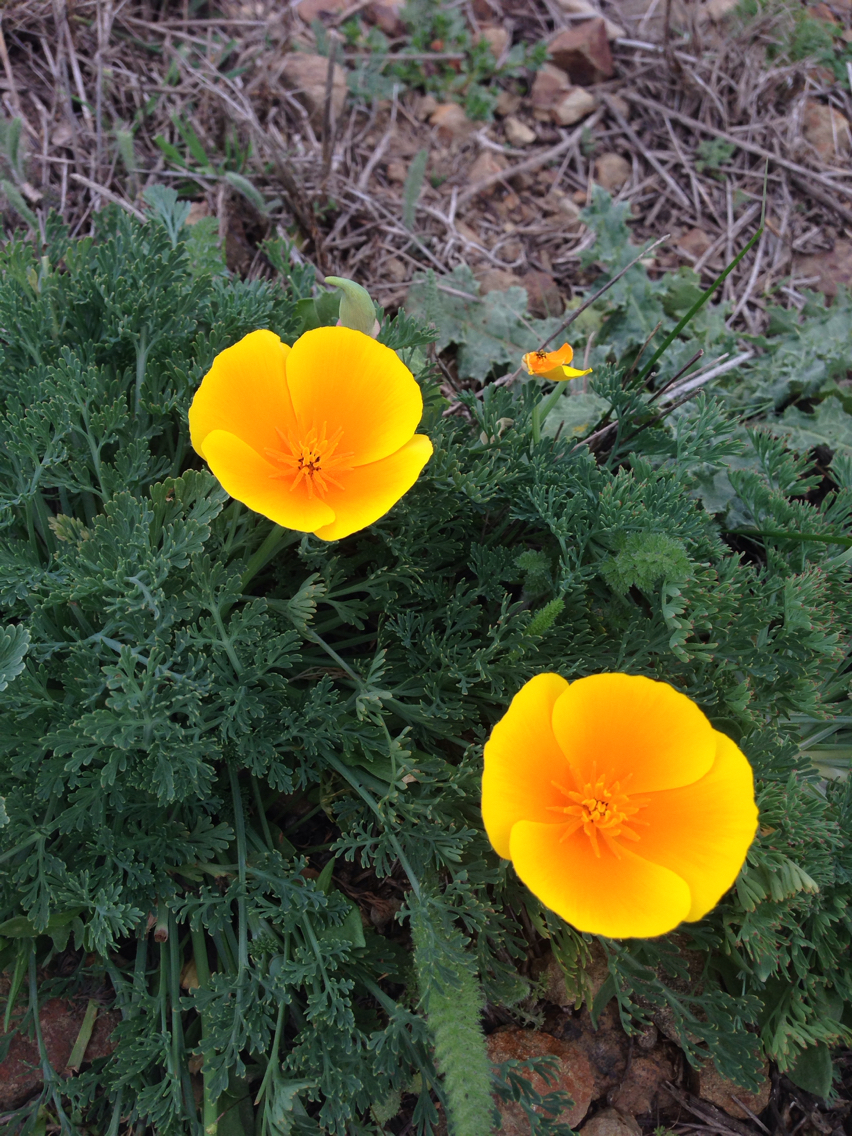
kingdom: Plantae
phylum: Tracheophyta
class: Magnoliopsida
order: Ranunculales
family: Papaveraceae
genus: Eschscholzia
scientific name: Eschscholzia californica
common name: California poppy
